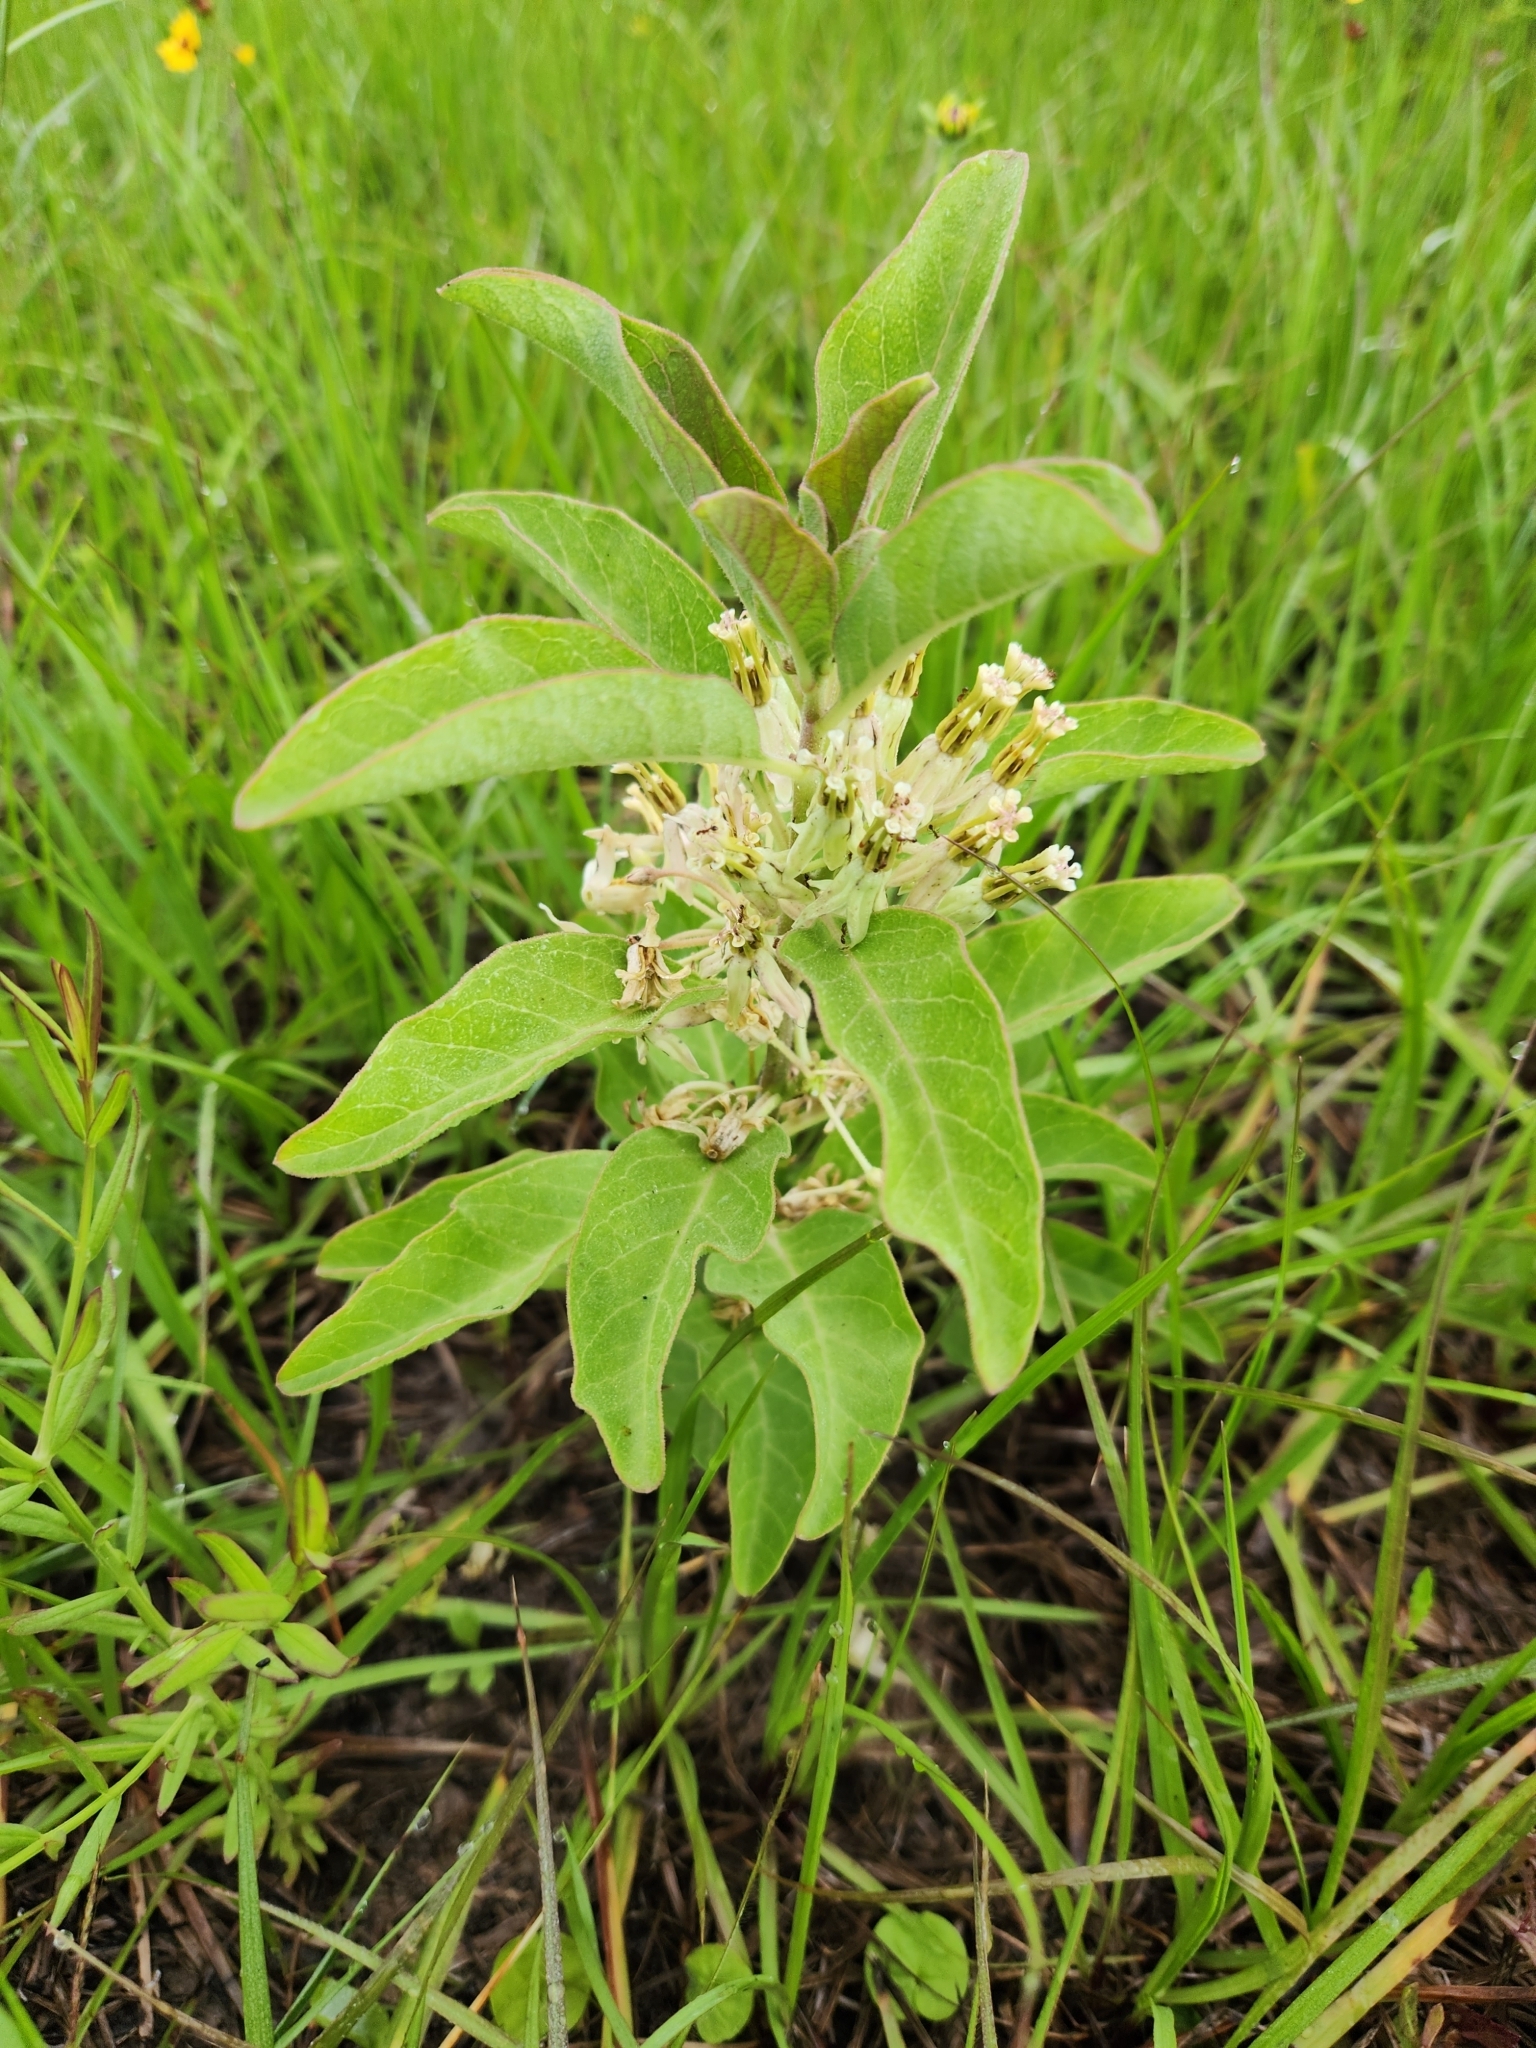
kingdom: Plantae
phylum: Tracheophyta
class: Magnoliopsida
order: Gentianales
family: Apocynaceae
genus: Asclepias
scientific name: Asclepias oenotheroides
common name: Zizotes milkweed
